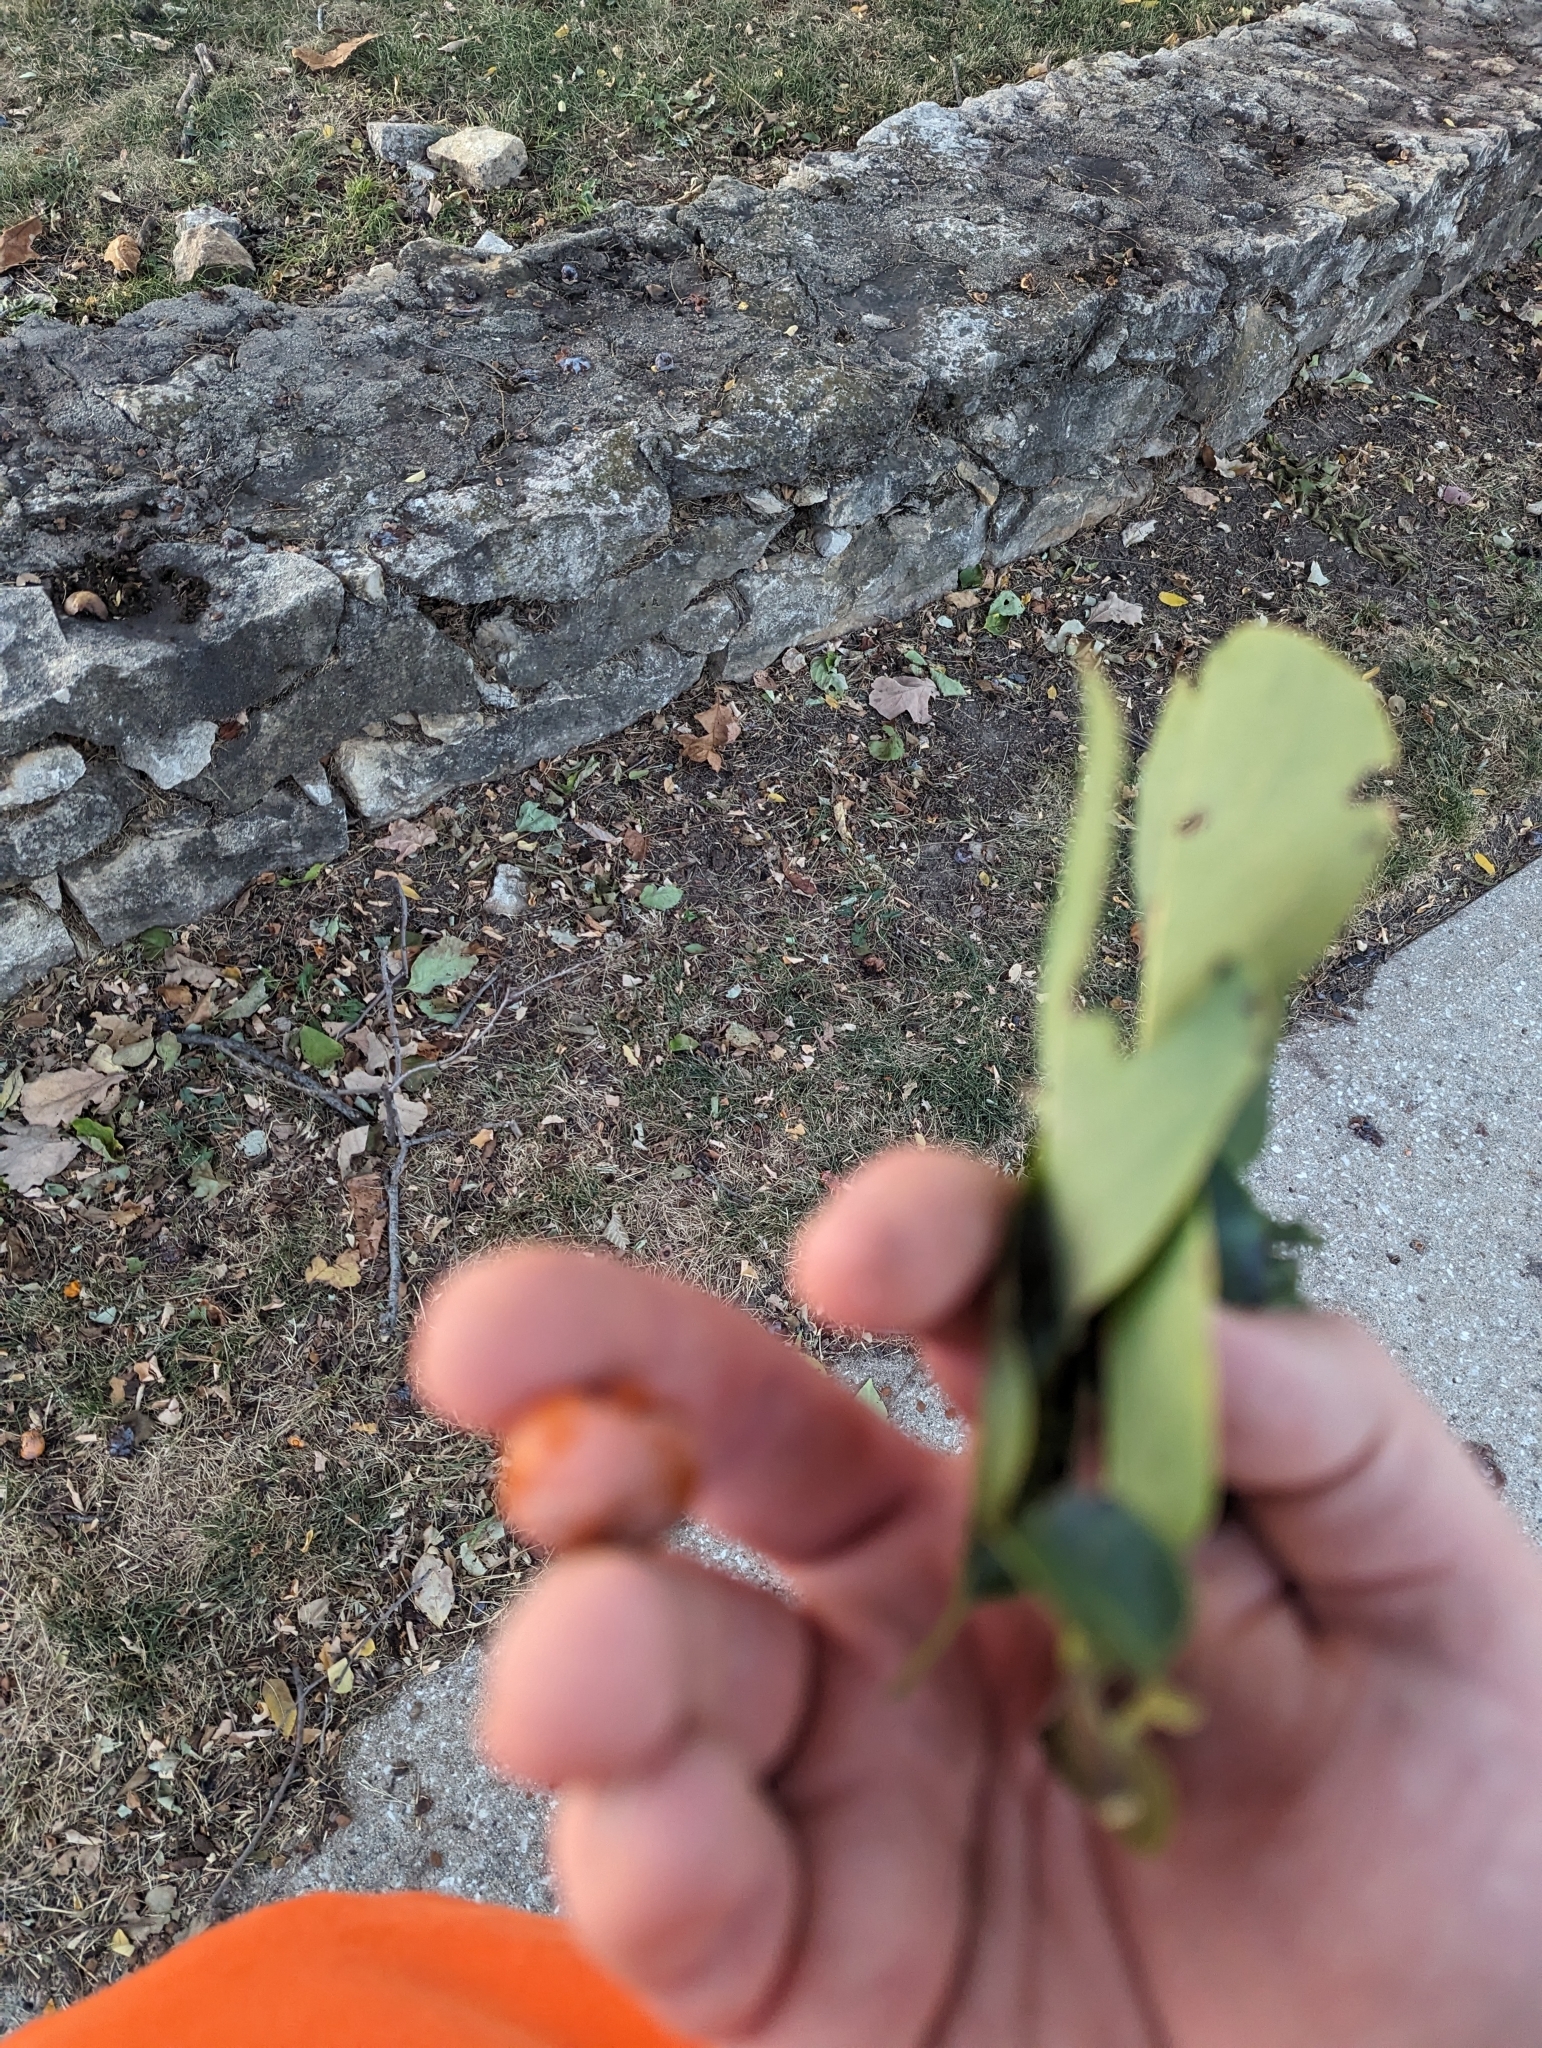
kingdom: Plantae
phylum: Tracheophyta
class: Magnoliopsida
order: Ericales
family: Ebenaceae
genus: Diospyros
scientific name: Diospyros virginiana
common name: Persimmon
